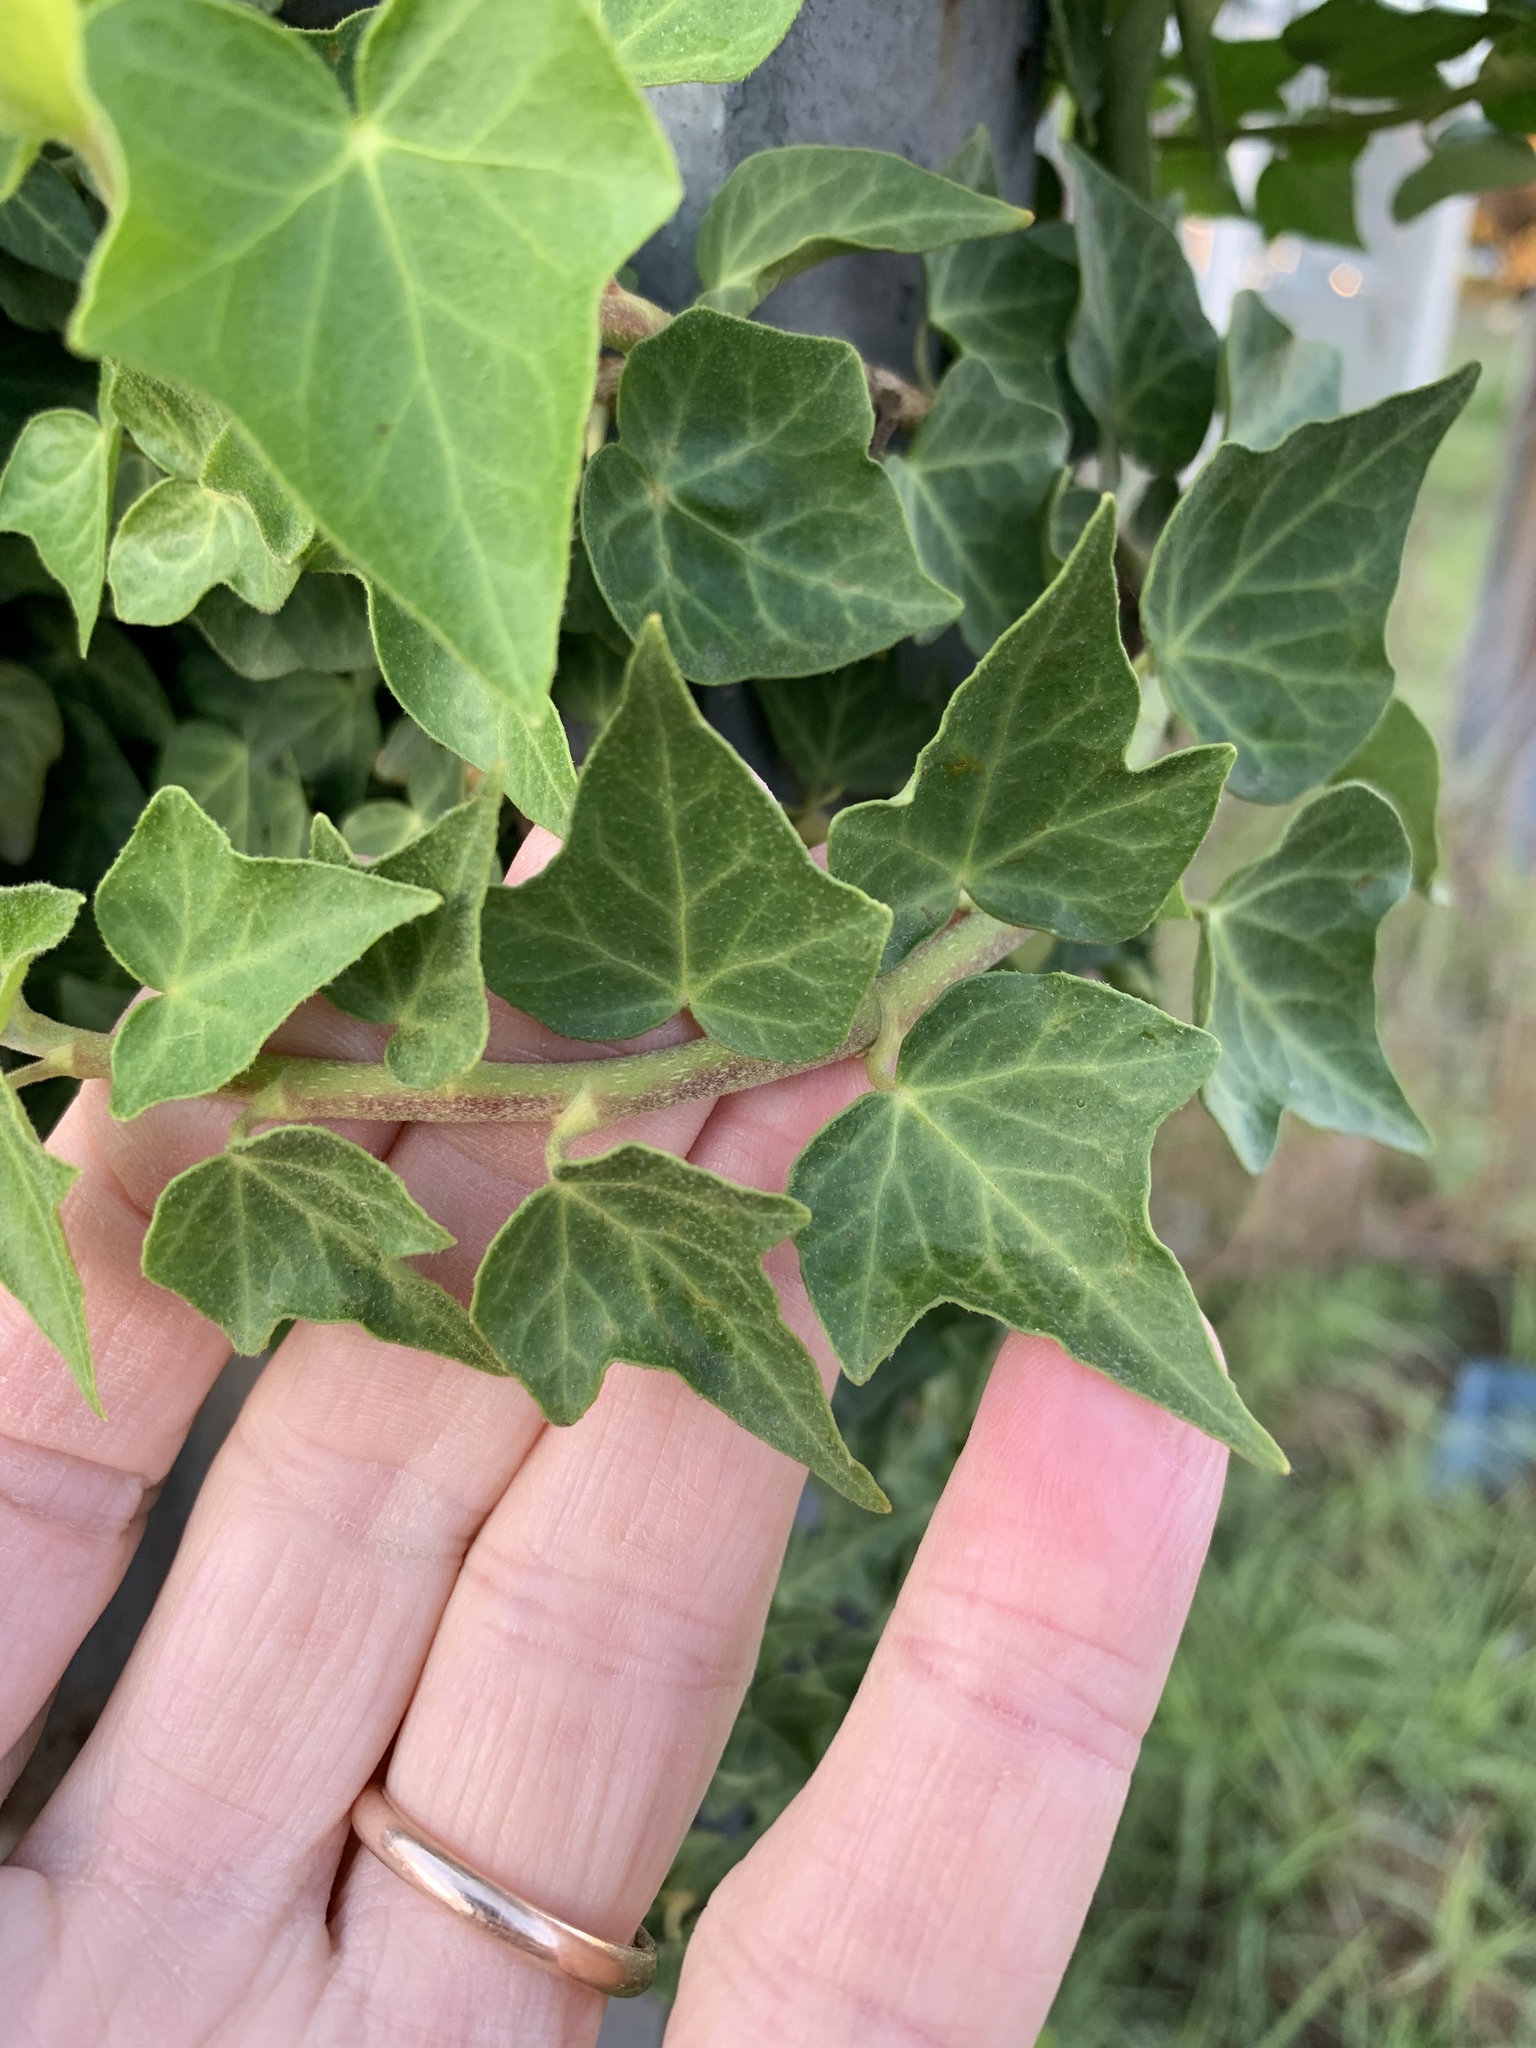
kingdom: Plantae
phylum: Tracheophyta
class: Magnoliopsida
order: Apiales
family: Araliaceae
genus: Hedera
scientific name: Hedera helix
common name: Ivy
